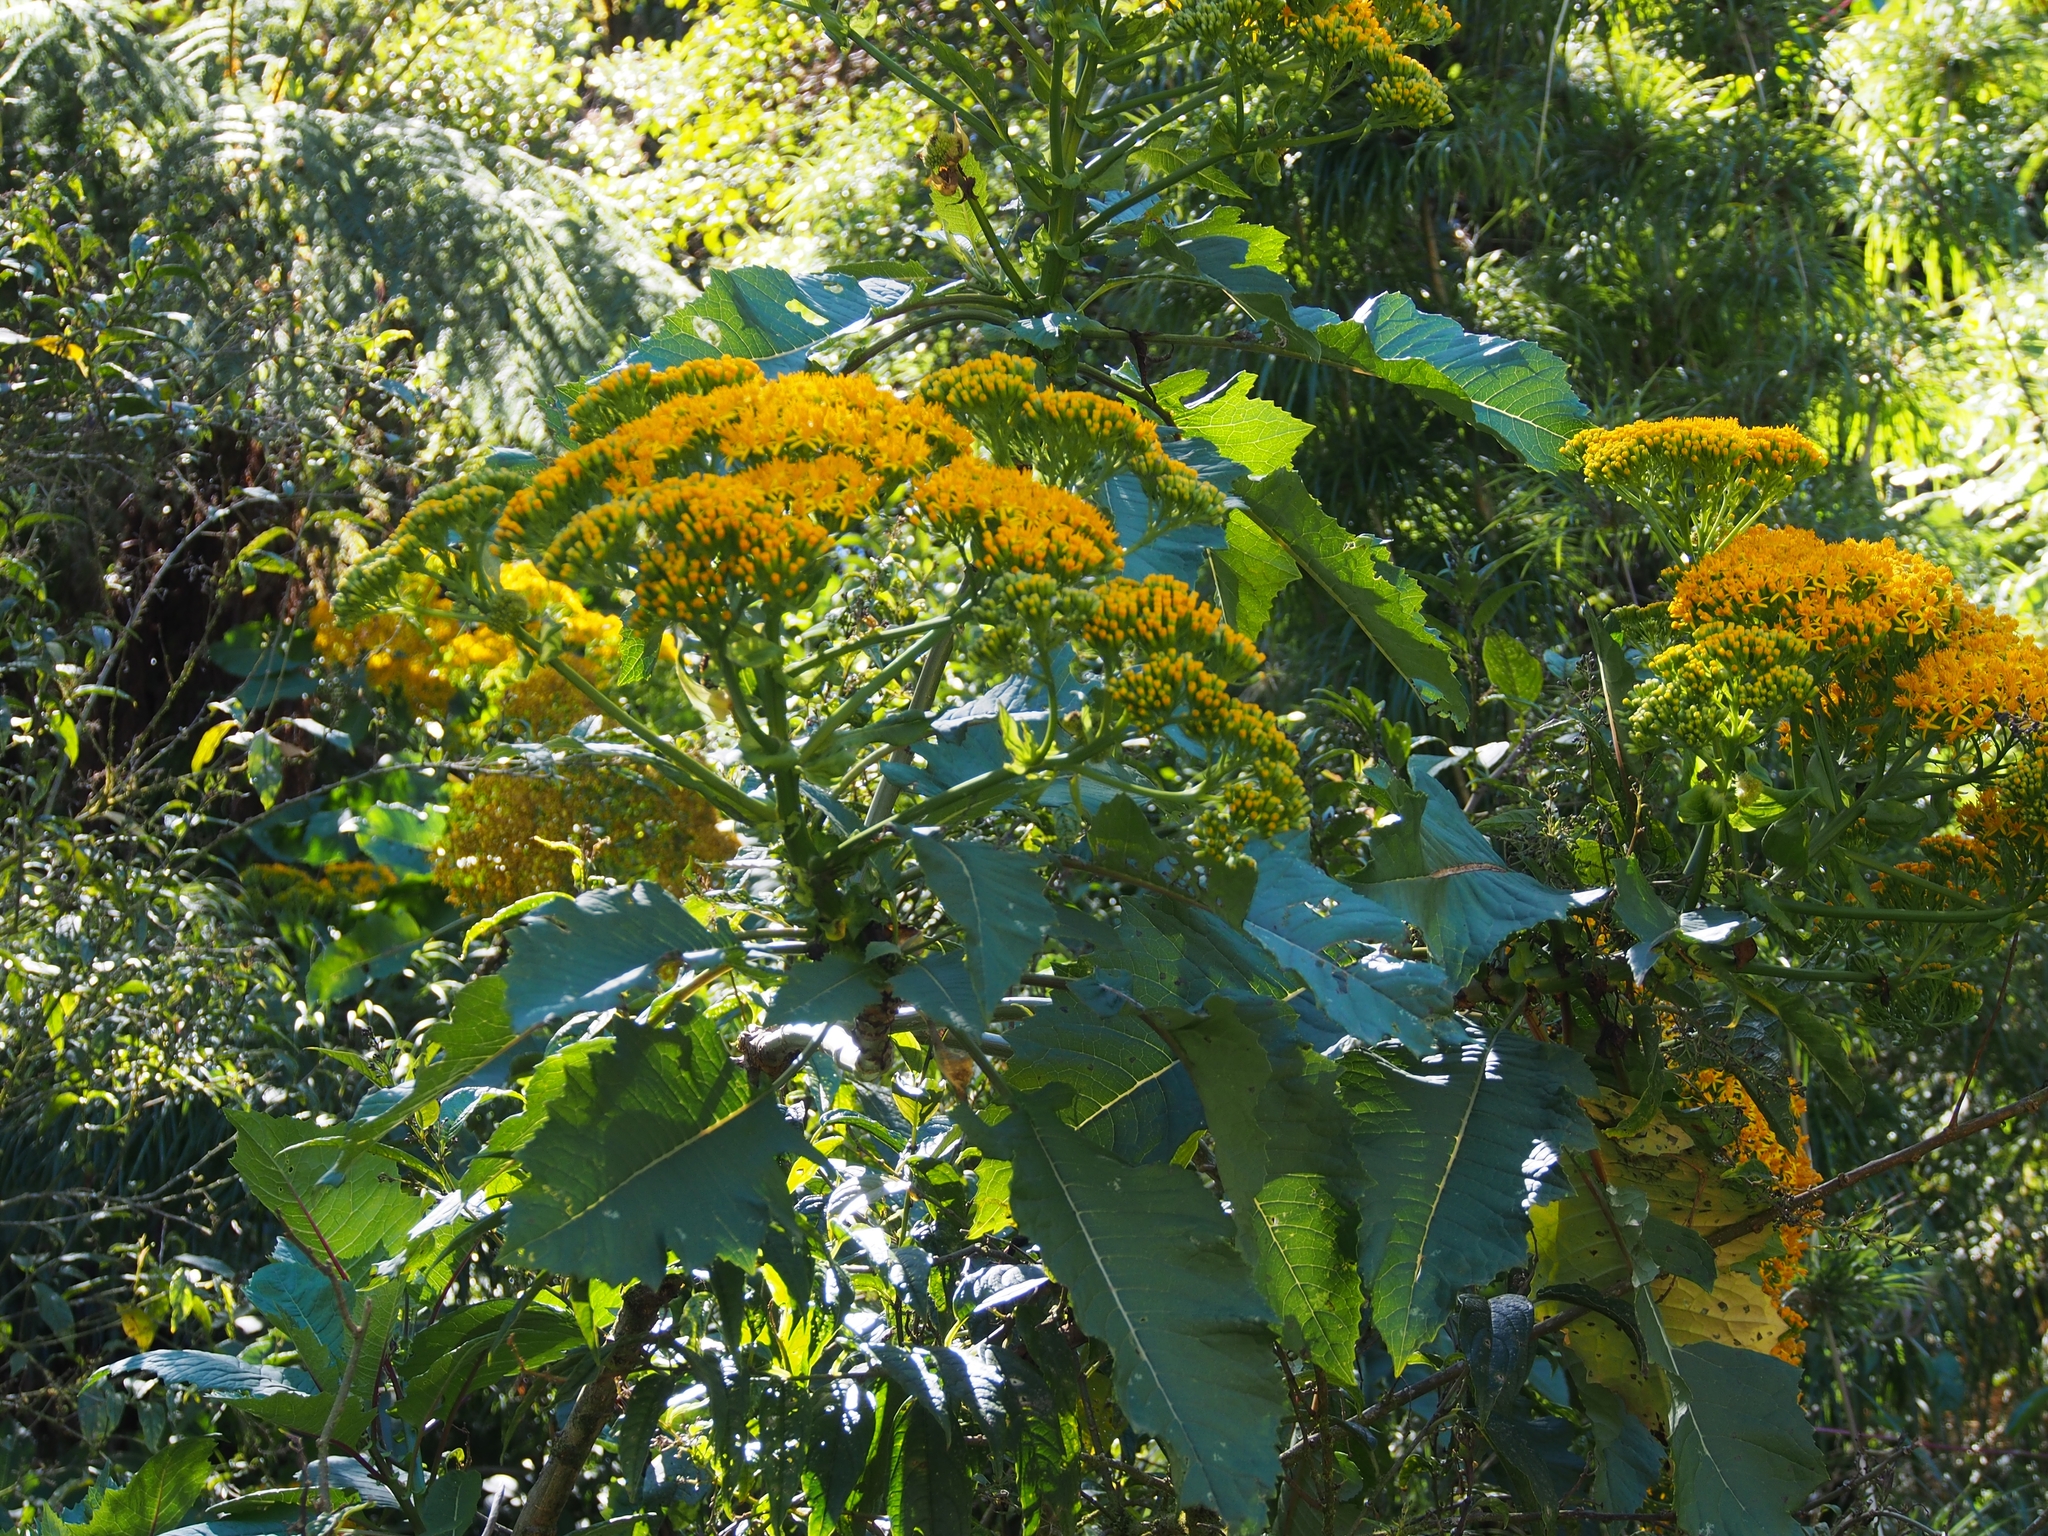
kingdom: Plantae
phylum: Tracheophyta
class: Magnoliopsida
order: Asterales
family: Asteraceae
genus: Jessea
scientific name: Jessea cooperi
